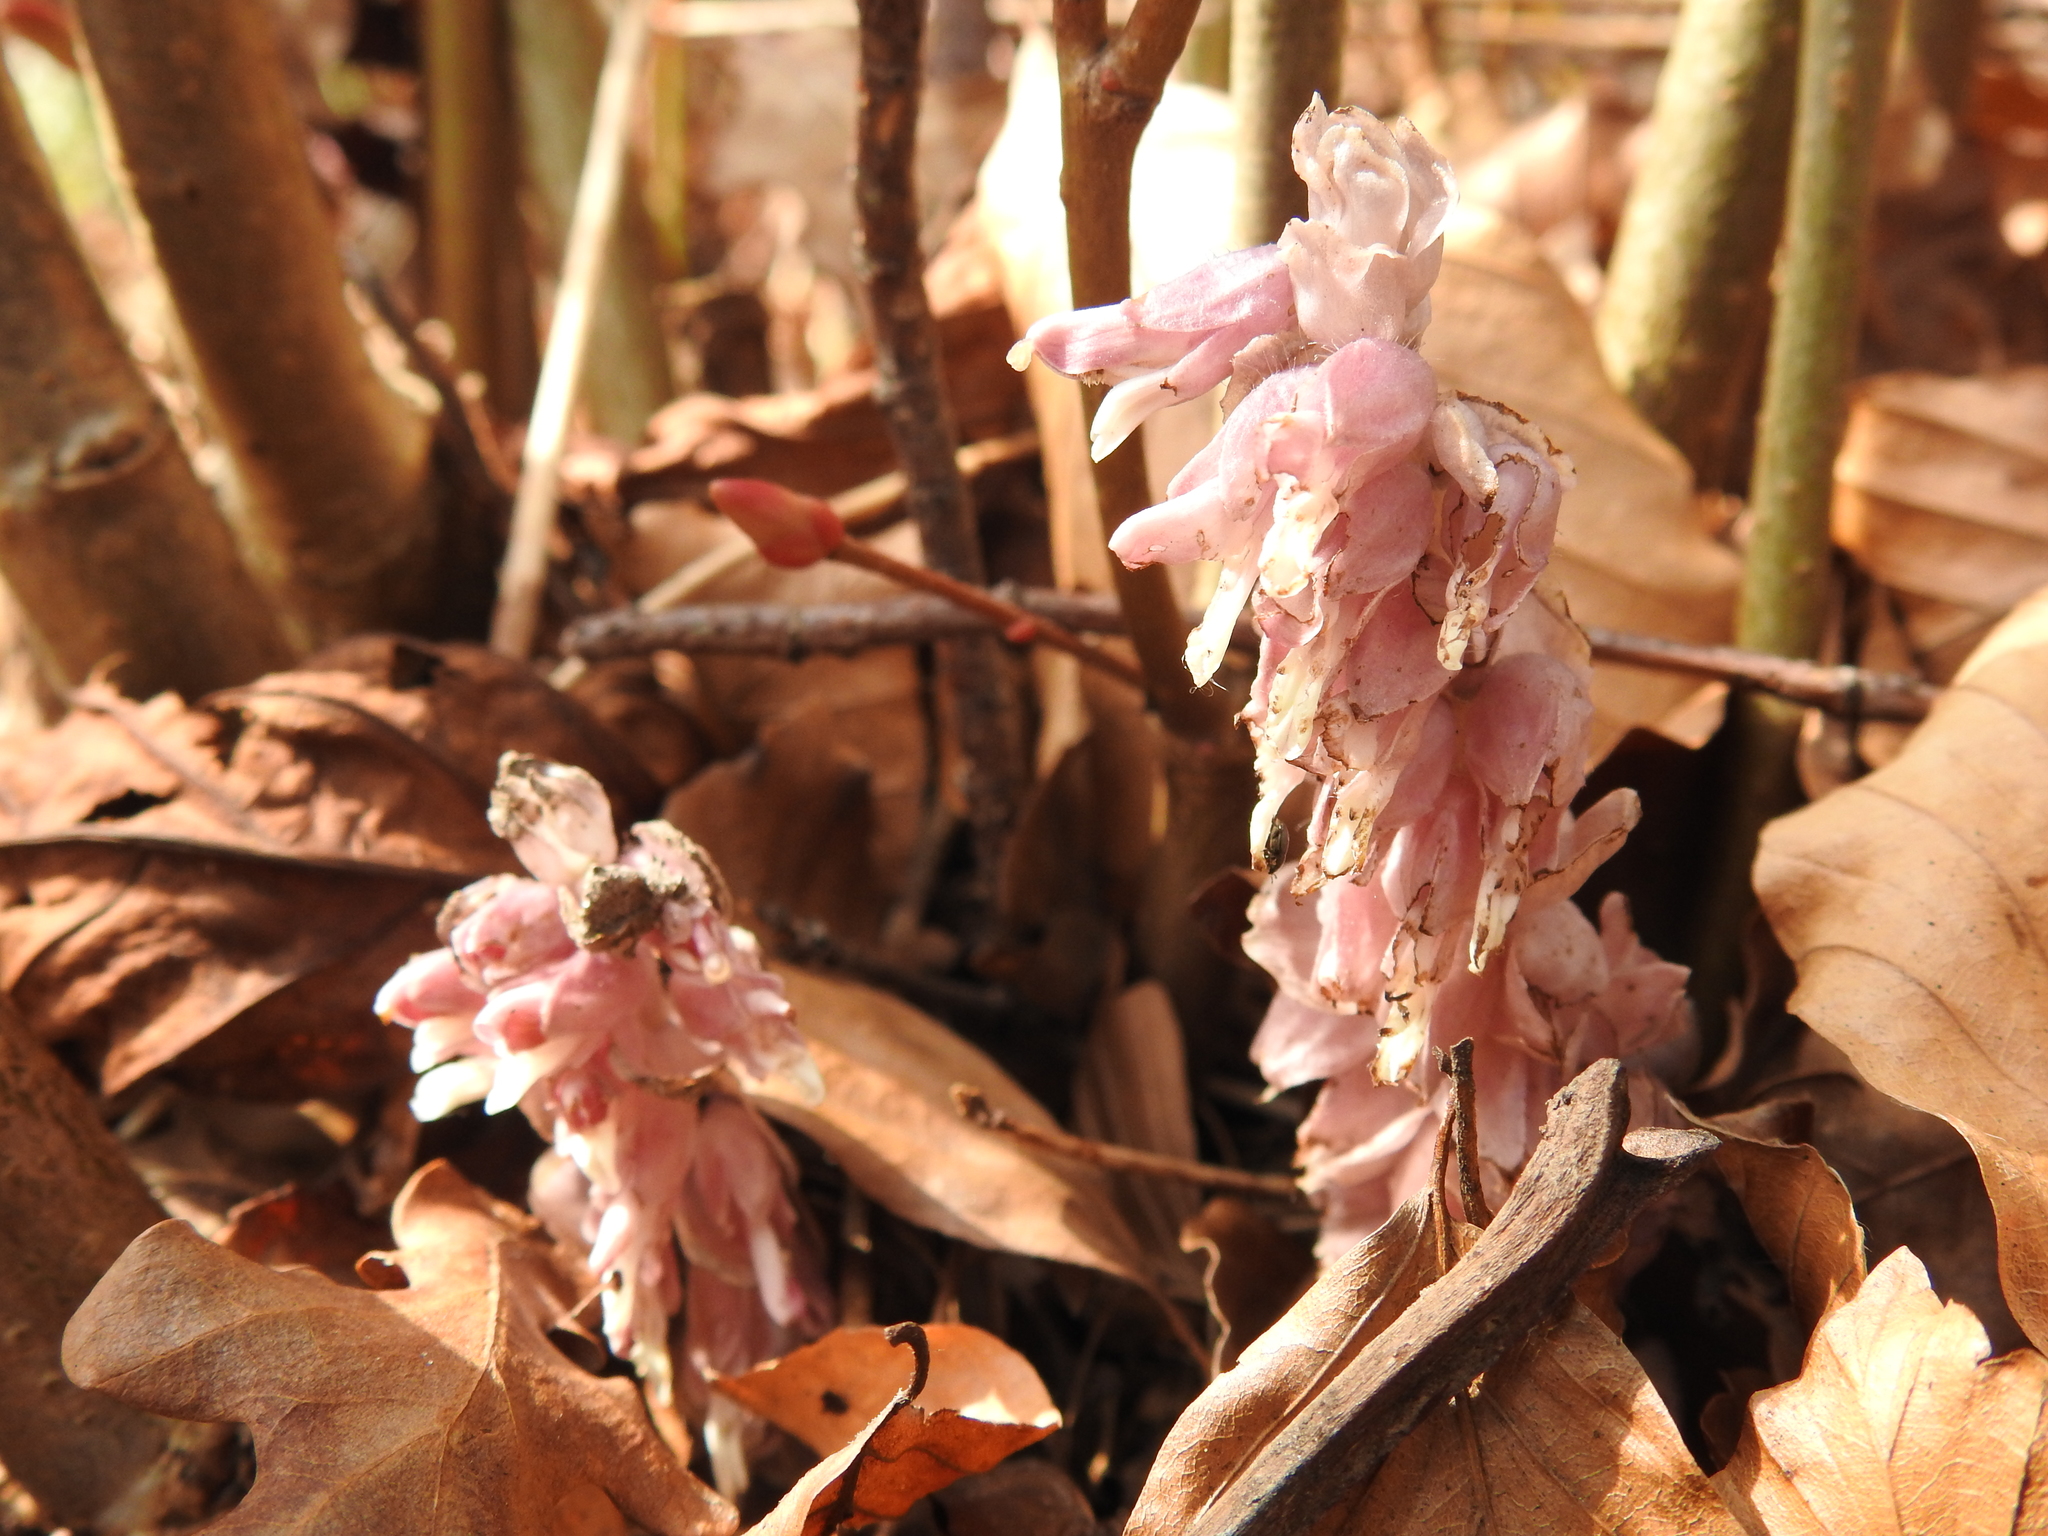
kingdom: Plantae
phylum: Tracheophyta
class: Magnoliopsida
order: Lamiales
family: Orobanchaceae
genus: Lathraea
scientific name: Lathraea squamaria
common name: Toothwort
